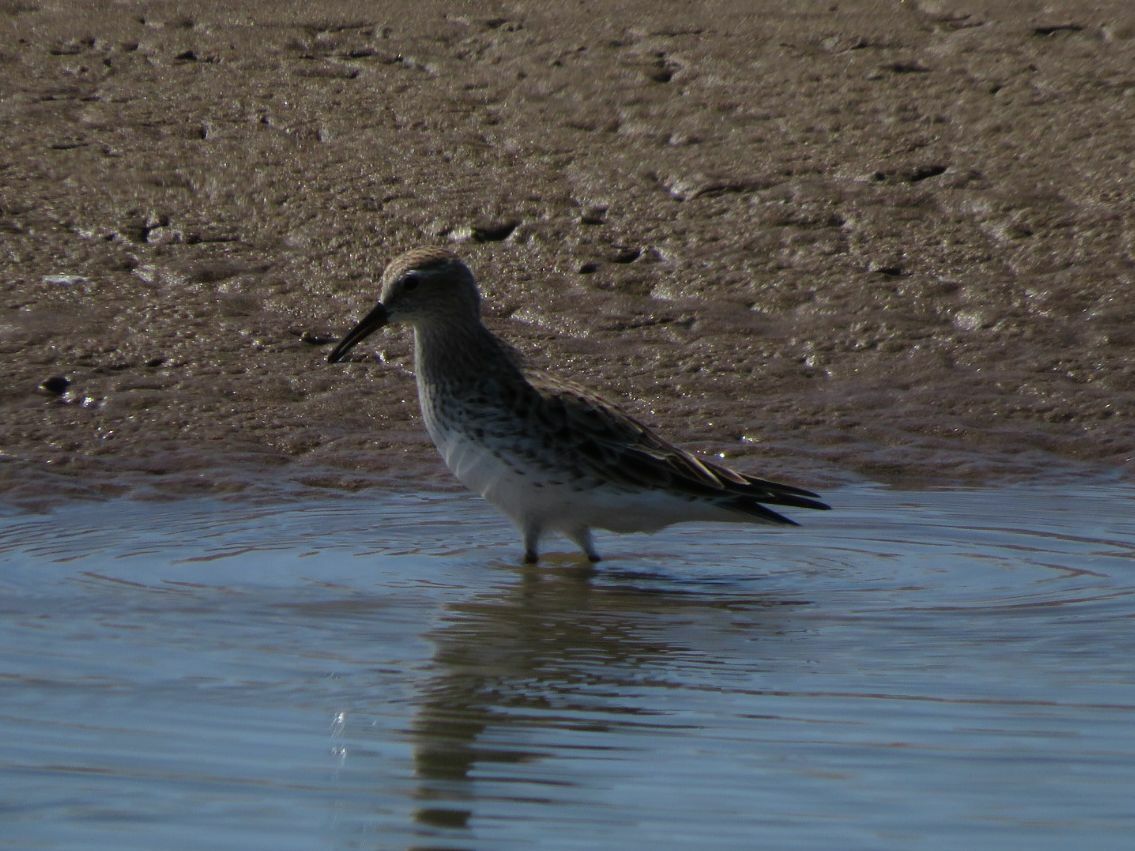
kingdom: Animalia
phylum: Chordata
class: Aves
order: Charadriiformes
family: Scolopacidae
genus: Calidris
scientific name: Calidris fuscicollis
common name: White-rumped sandpiper
